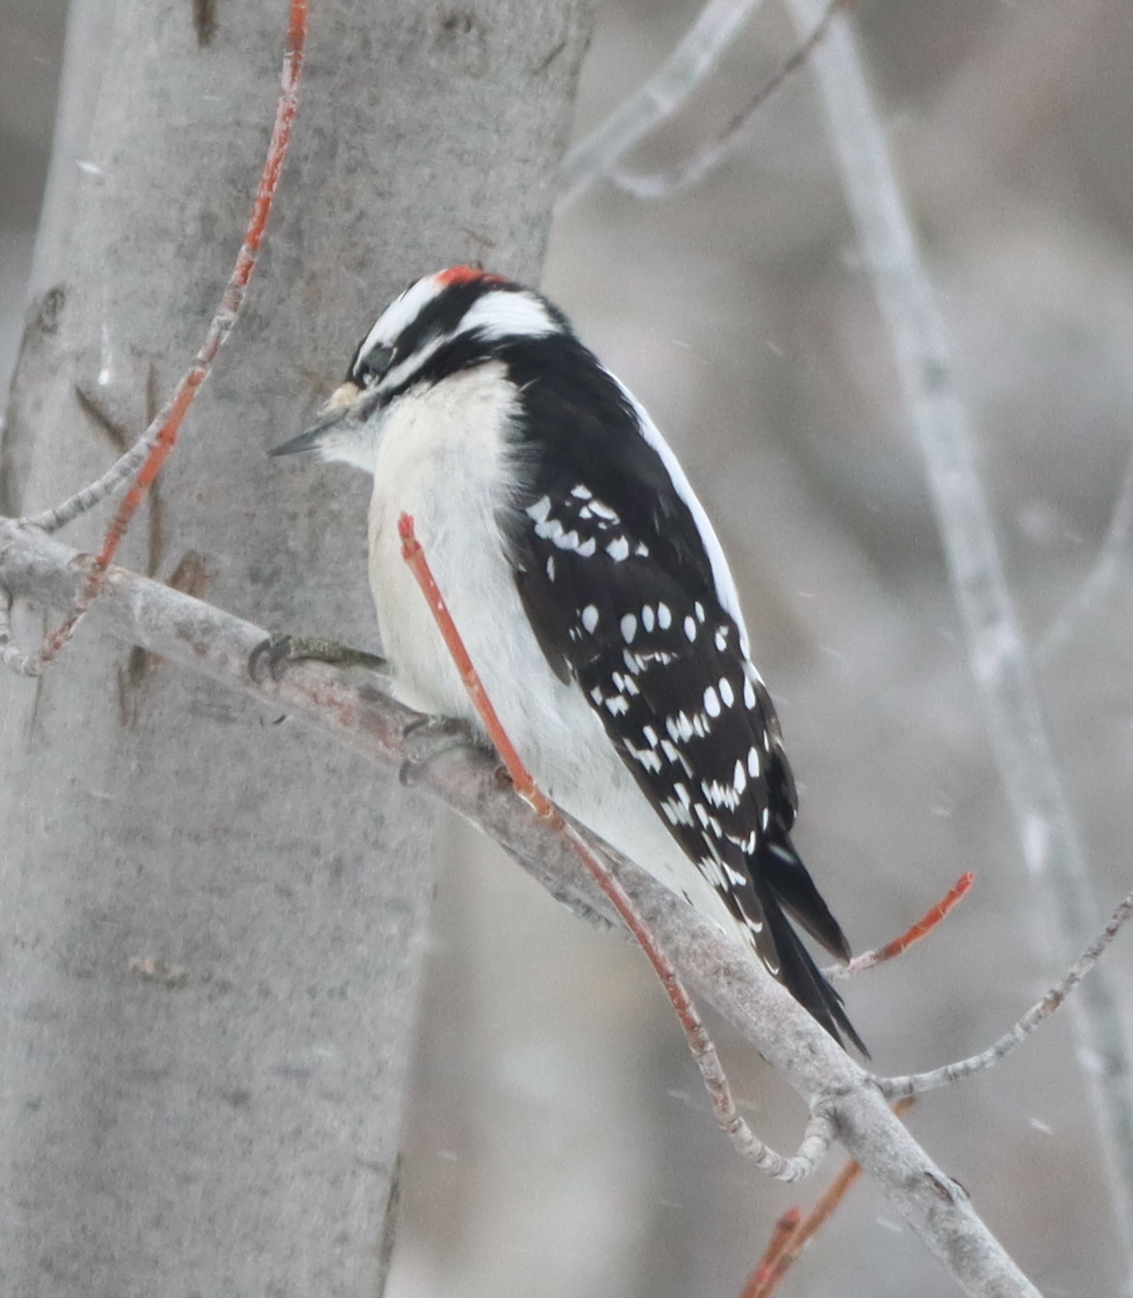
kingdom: Animalia
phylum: Chordata
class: Aves
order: Piciformes
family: Picidae
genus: Dryobates
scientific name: Dryobates pubescens
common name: Downy woodpecker
